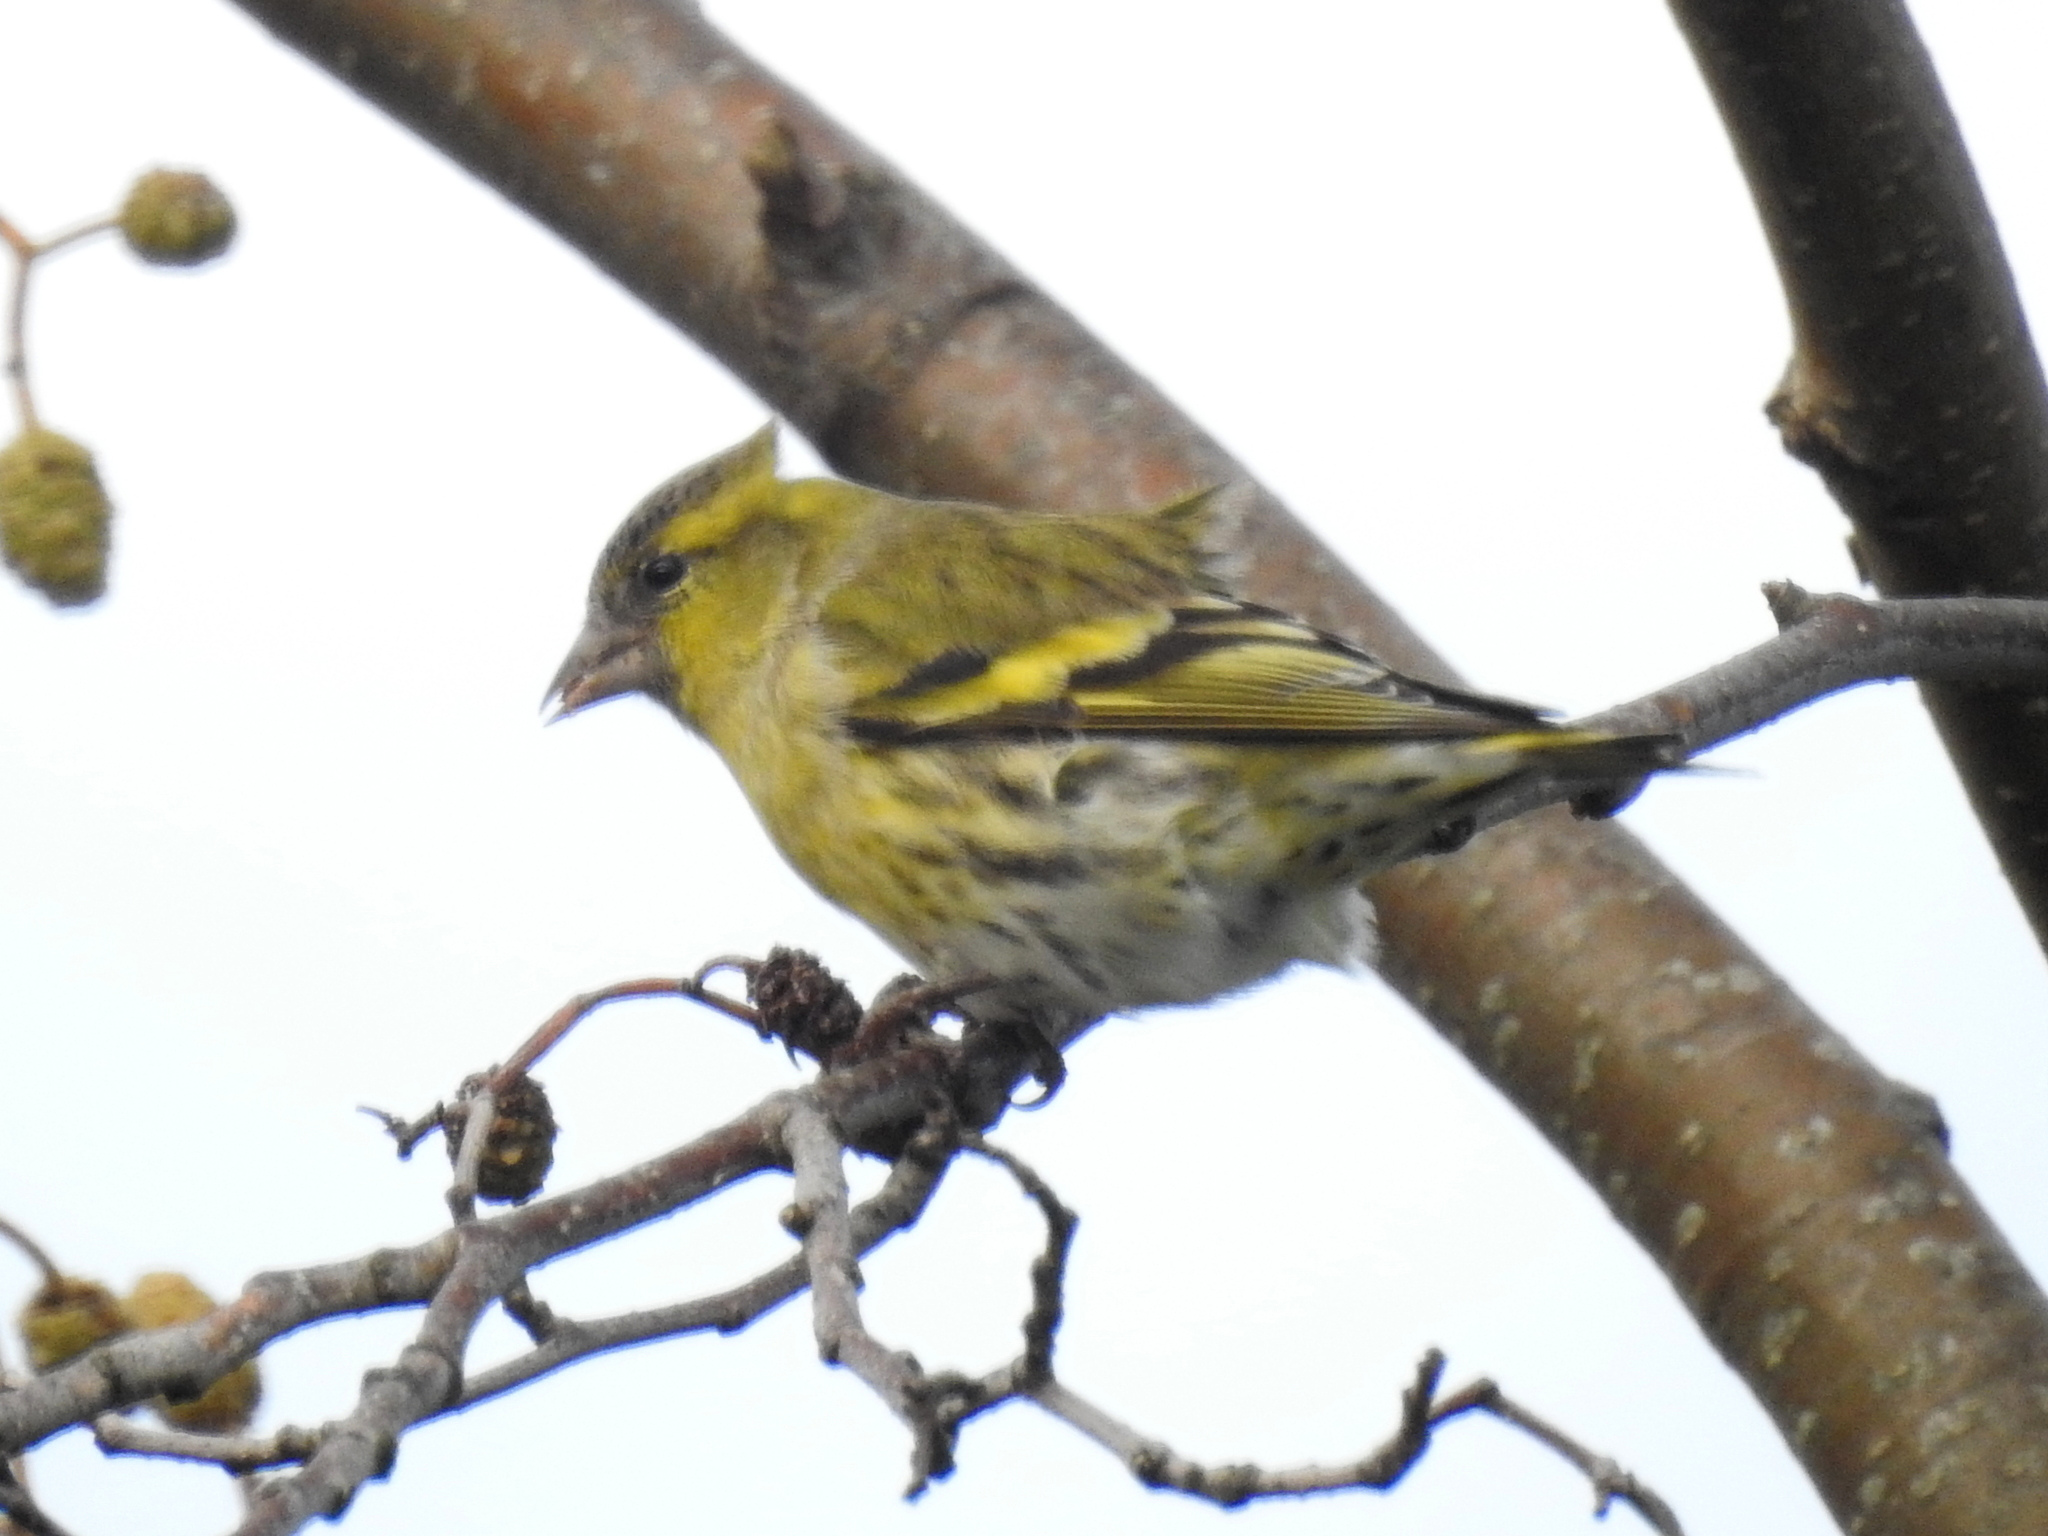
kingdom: Animalia
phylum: Chordata
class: Aves
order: Passeriformes
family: Fringillidae
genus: Spinus
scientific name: Spinus spinus
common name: Eurasian siskin
